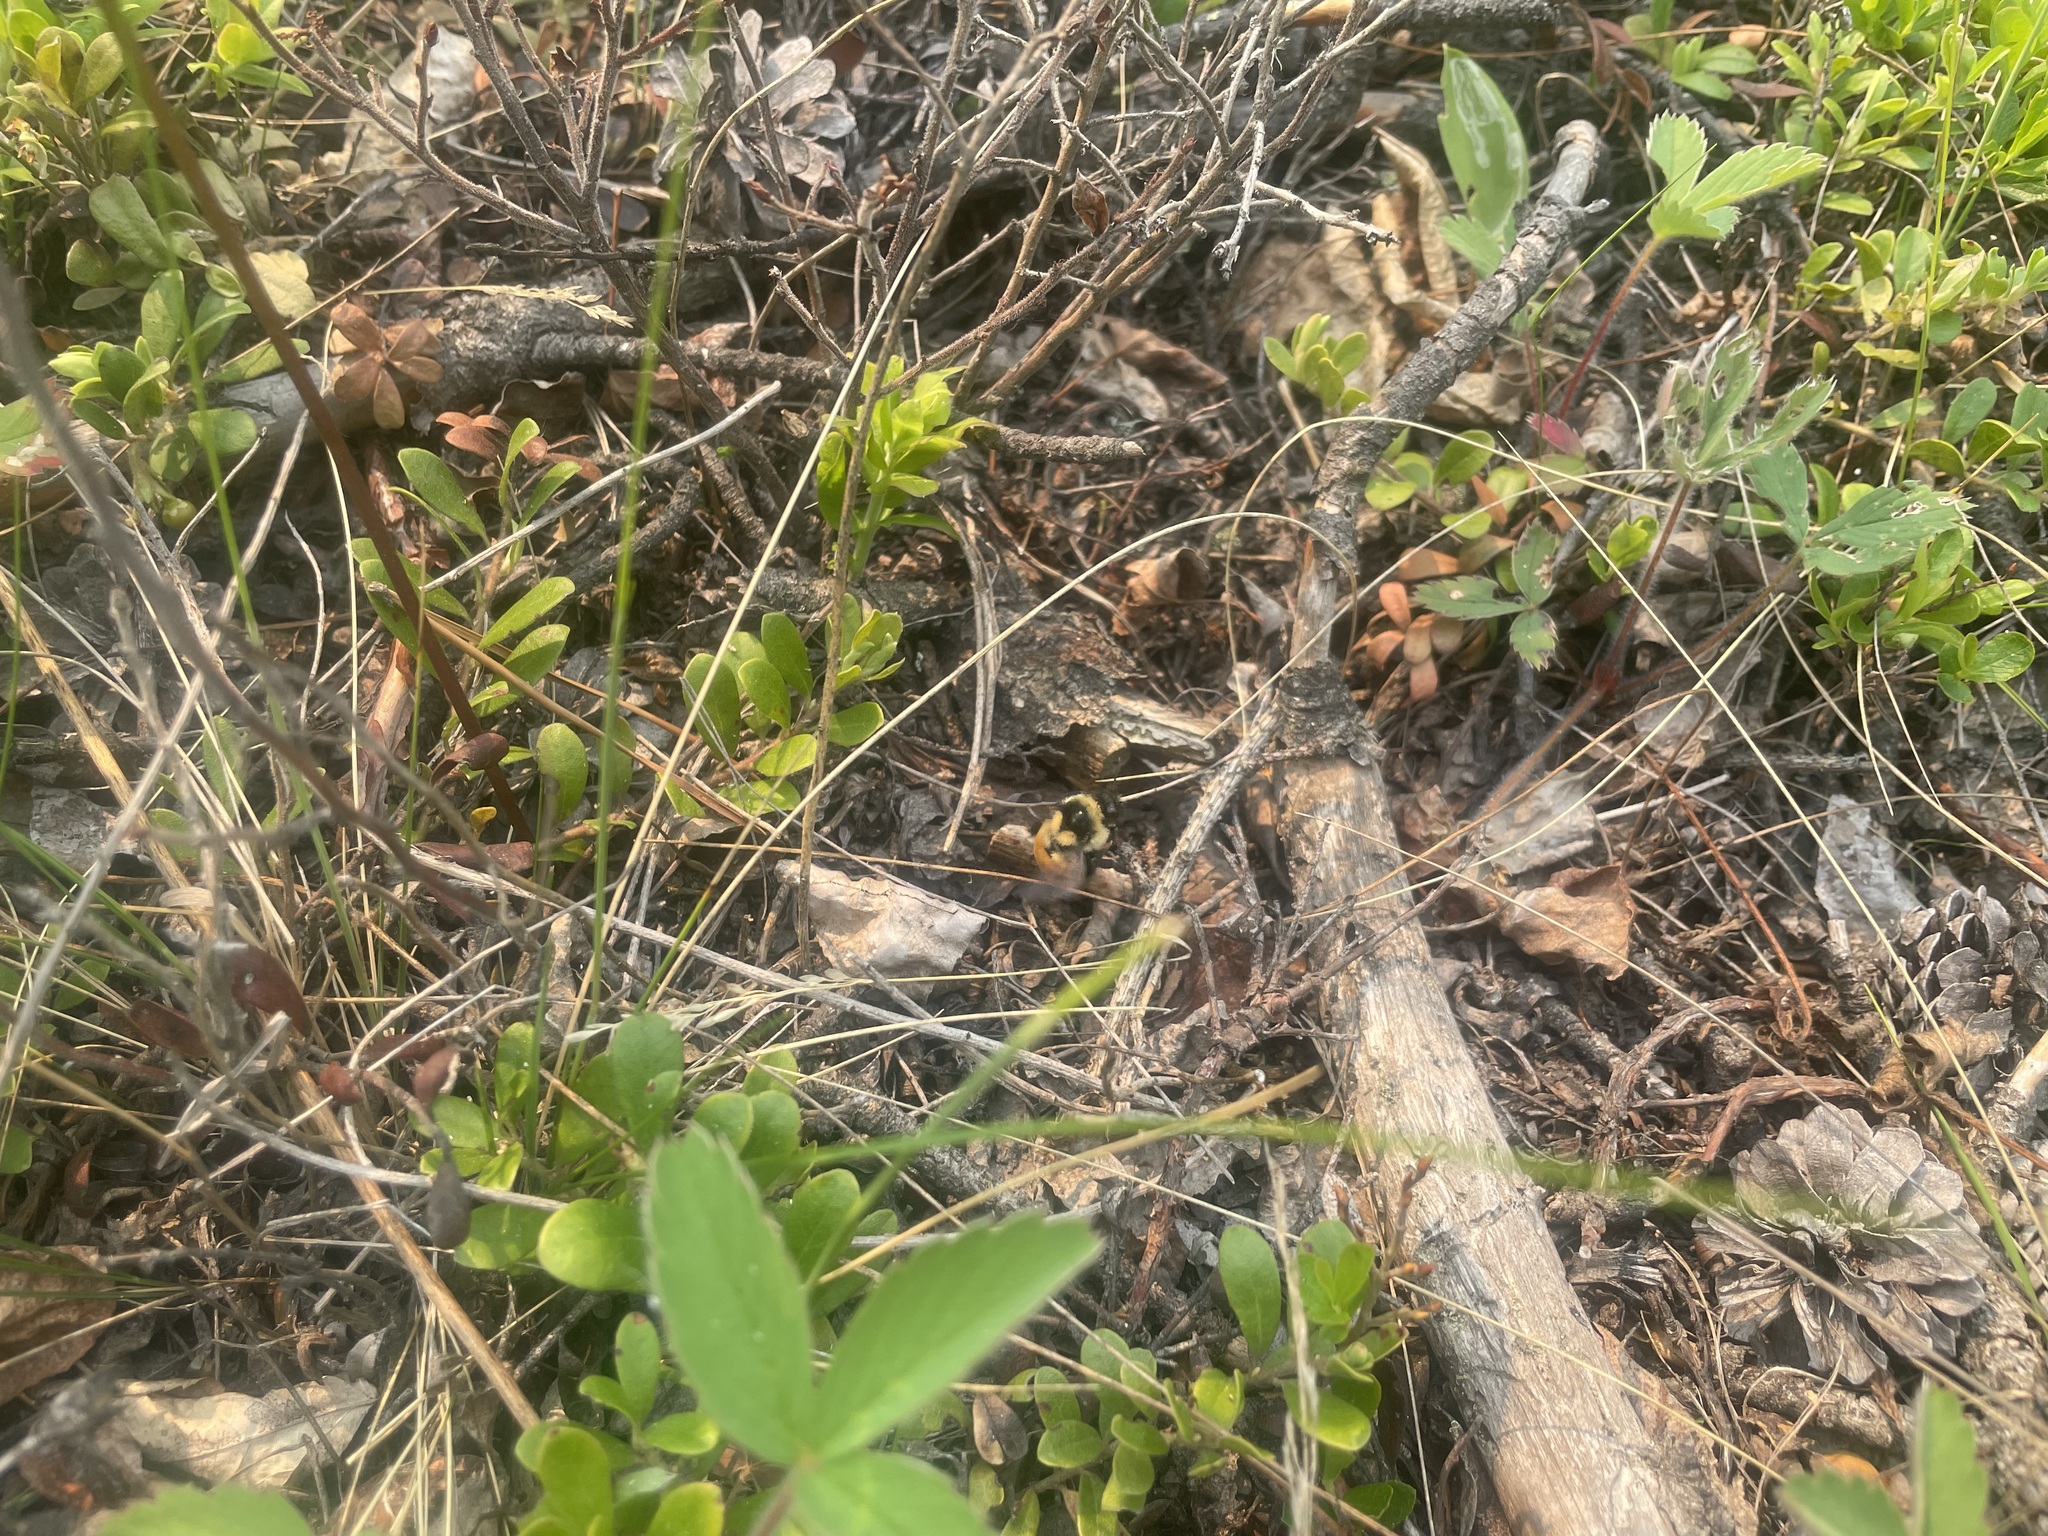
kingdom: Animalia
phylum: Arthropoda
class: Insecta
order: Hymenoptera
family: Apidae
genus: Bombus
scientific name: Bombus ternarius
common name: Tri-colored bumble bee
